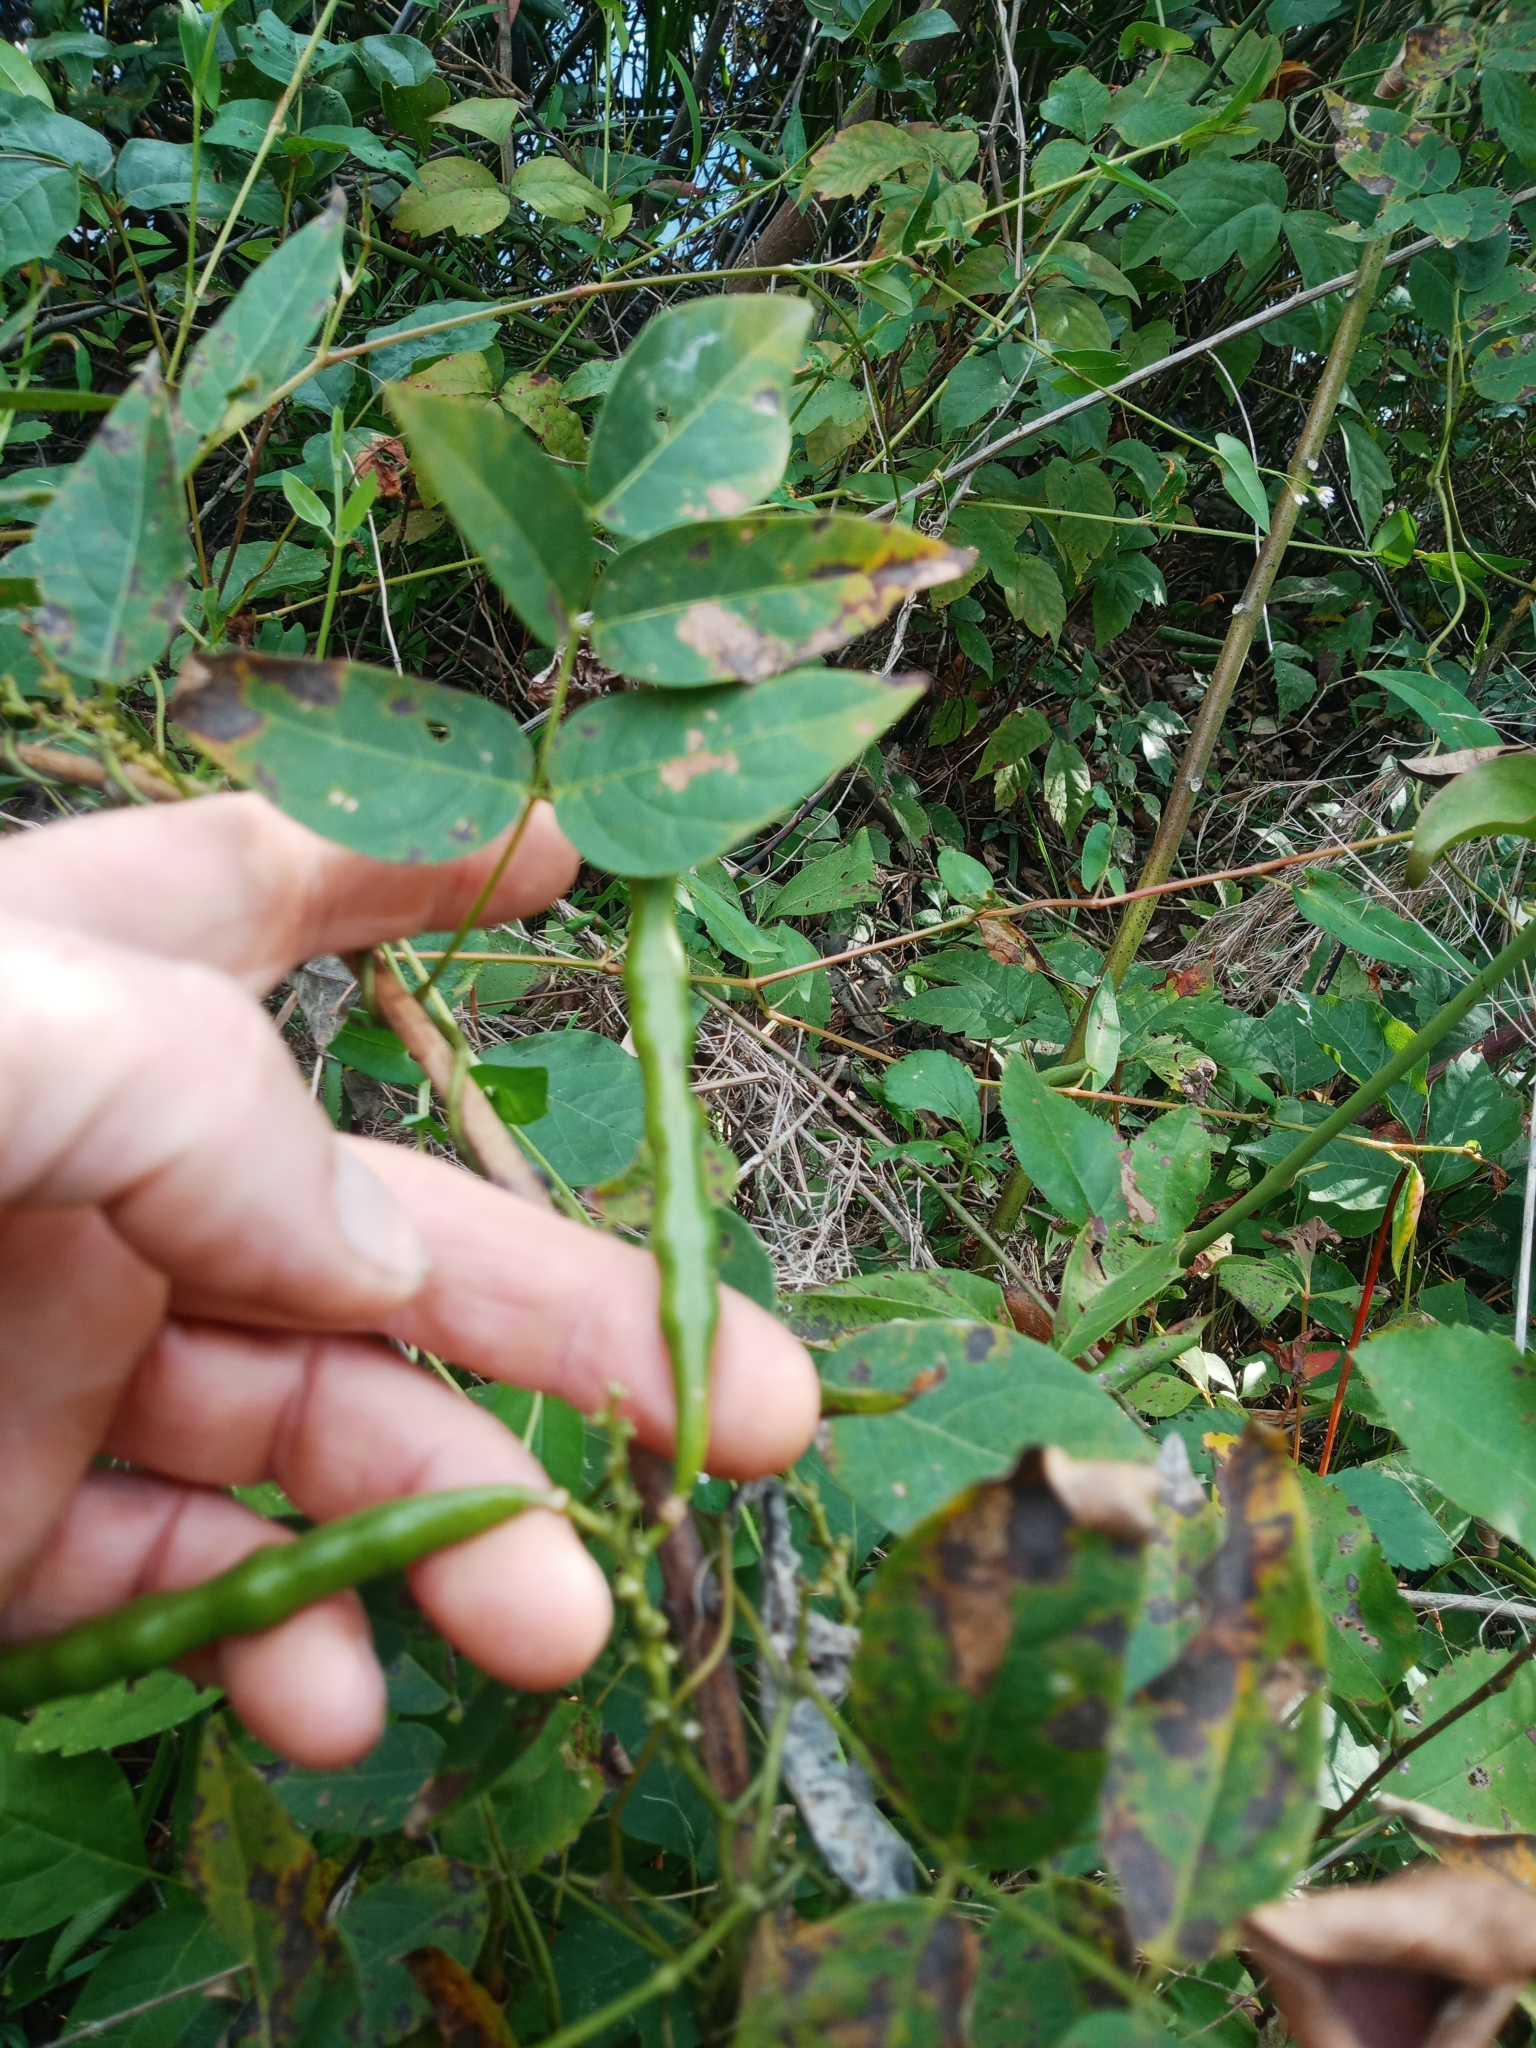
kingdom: Plantae
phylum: Tracheophyta
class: Magnoliopsida
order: Fabales
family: Fabaceae
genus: Apios
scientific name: Apios americana
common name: American potato-bean
